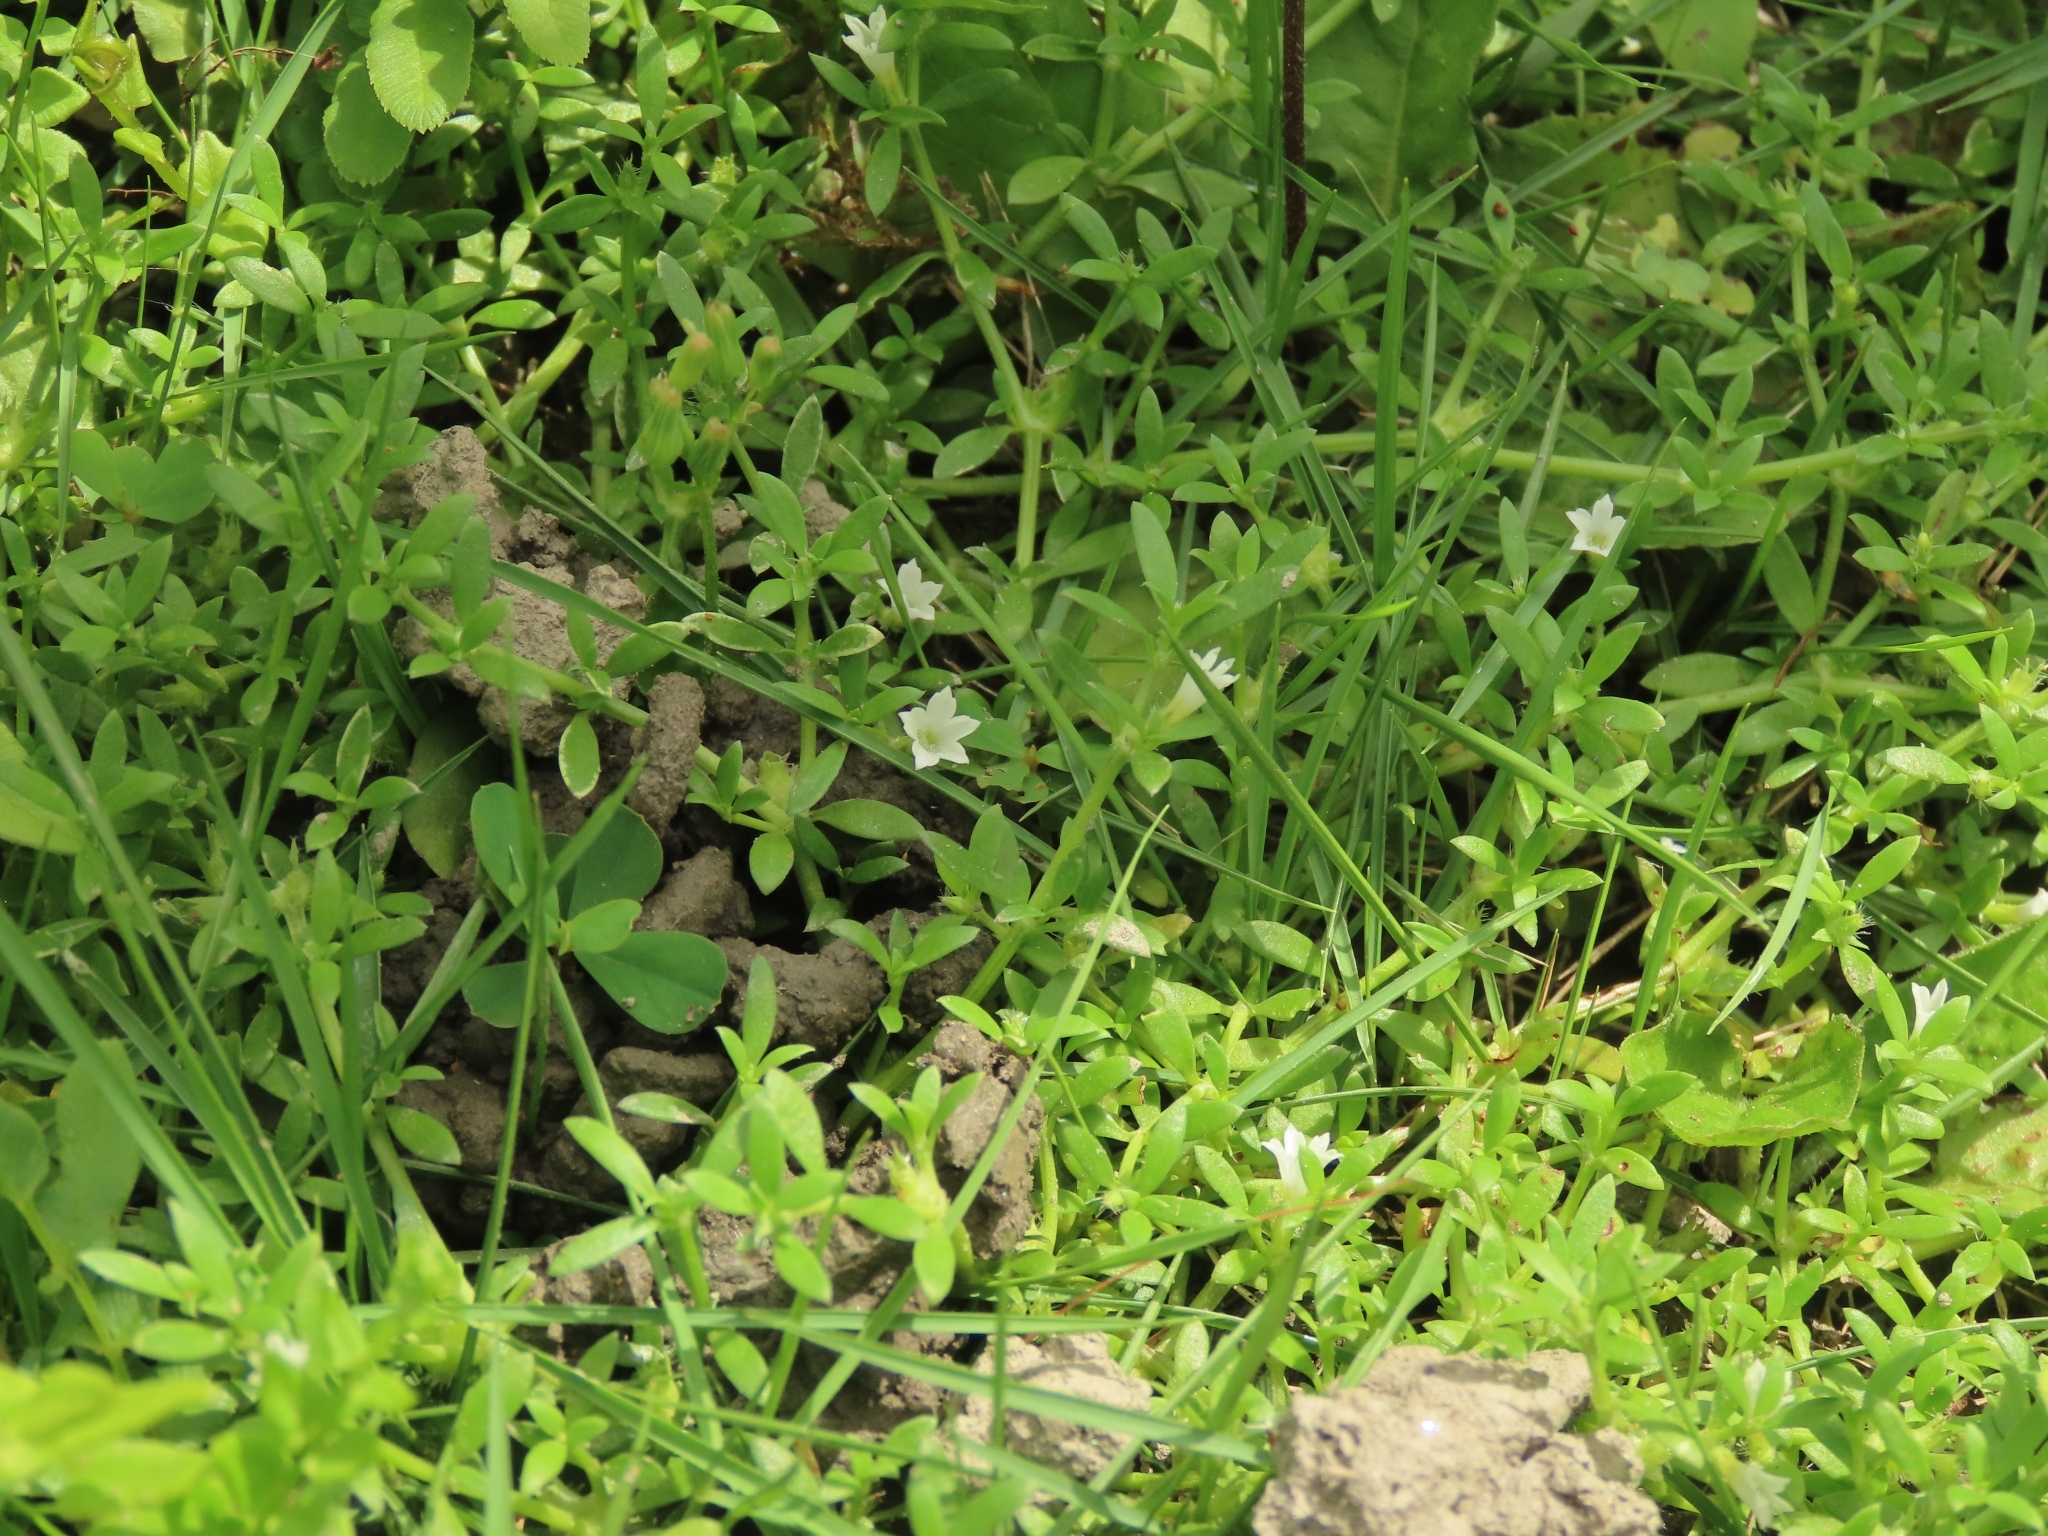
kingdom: Plantae
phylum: Tracheophyta
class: Magnoliopsida
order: Gentianales
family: Rubiaceae
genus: Dentella
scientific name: Dentella repens
